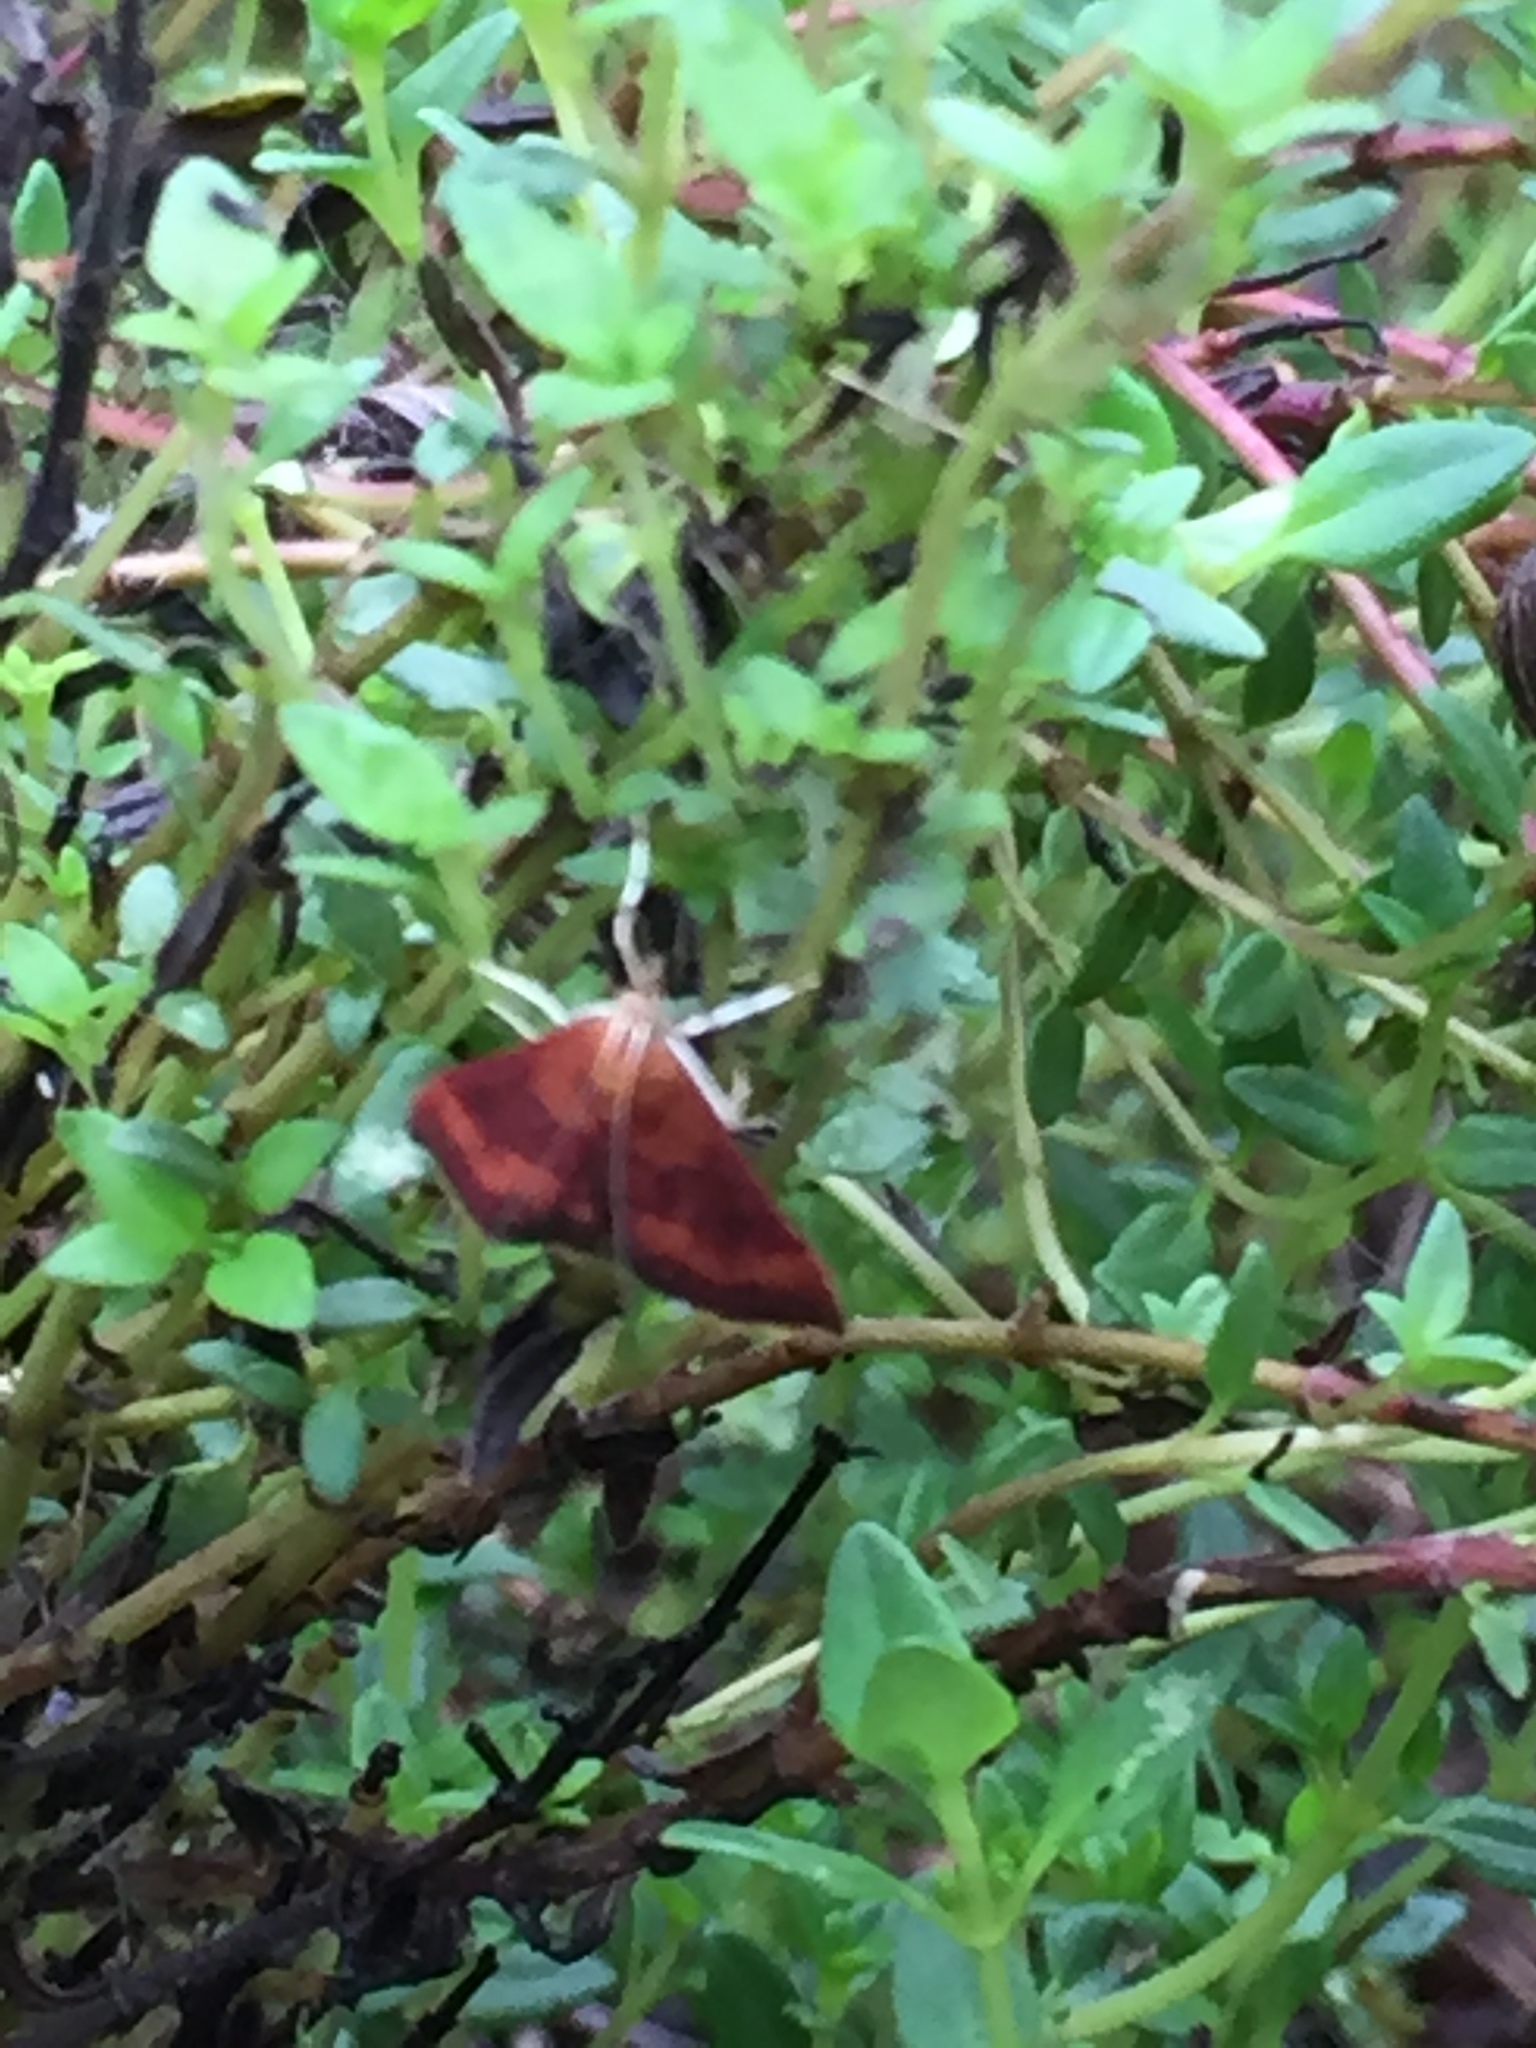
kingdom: Animalia
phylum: Arthropoda
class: Insecta
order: Lepidoptera
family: Crambidae
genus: Pyrausta
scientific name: Pyrausta rubricalis
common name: Variable reddish pyrausta
